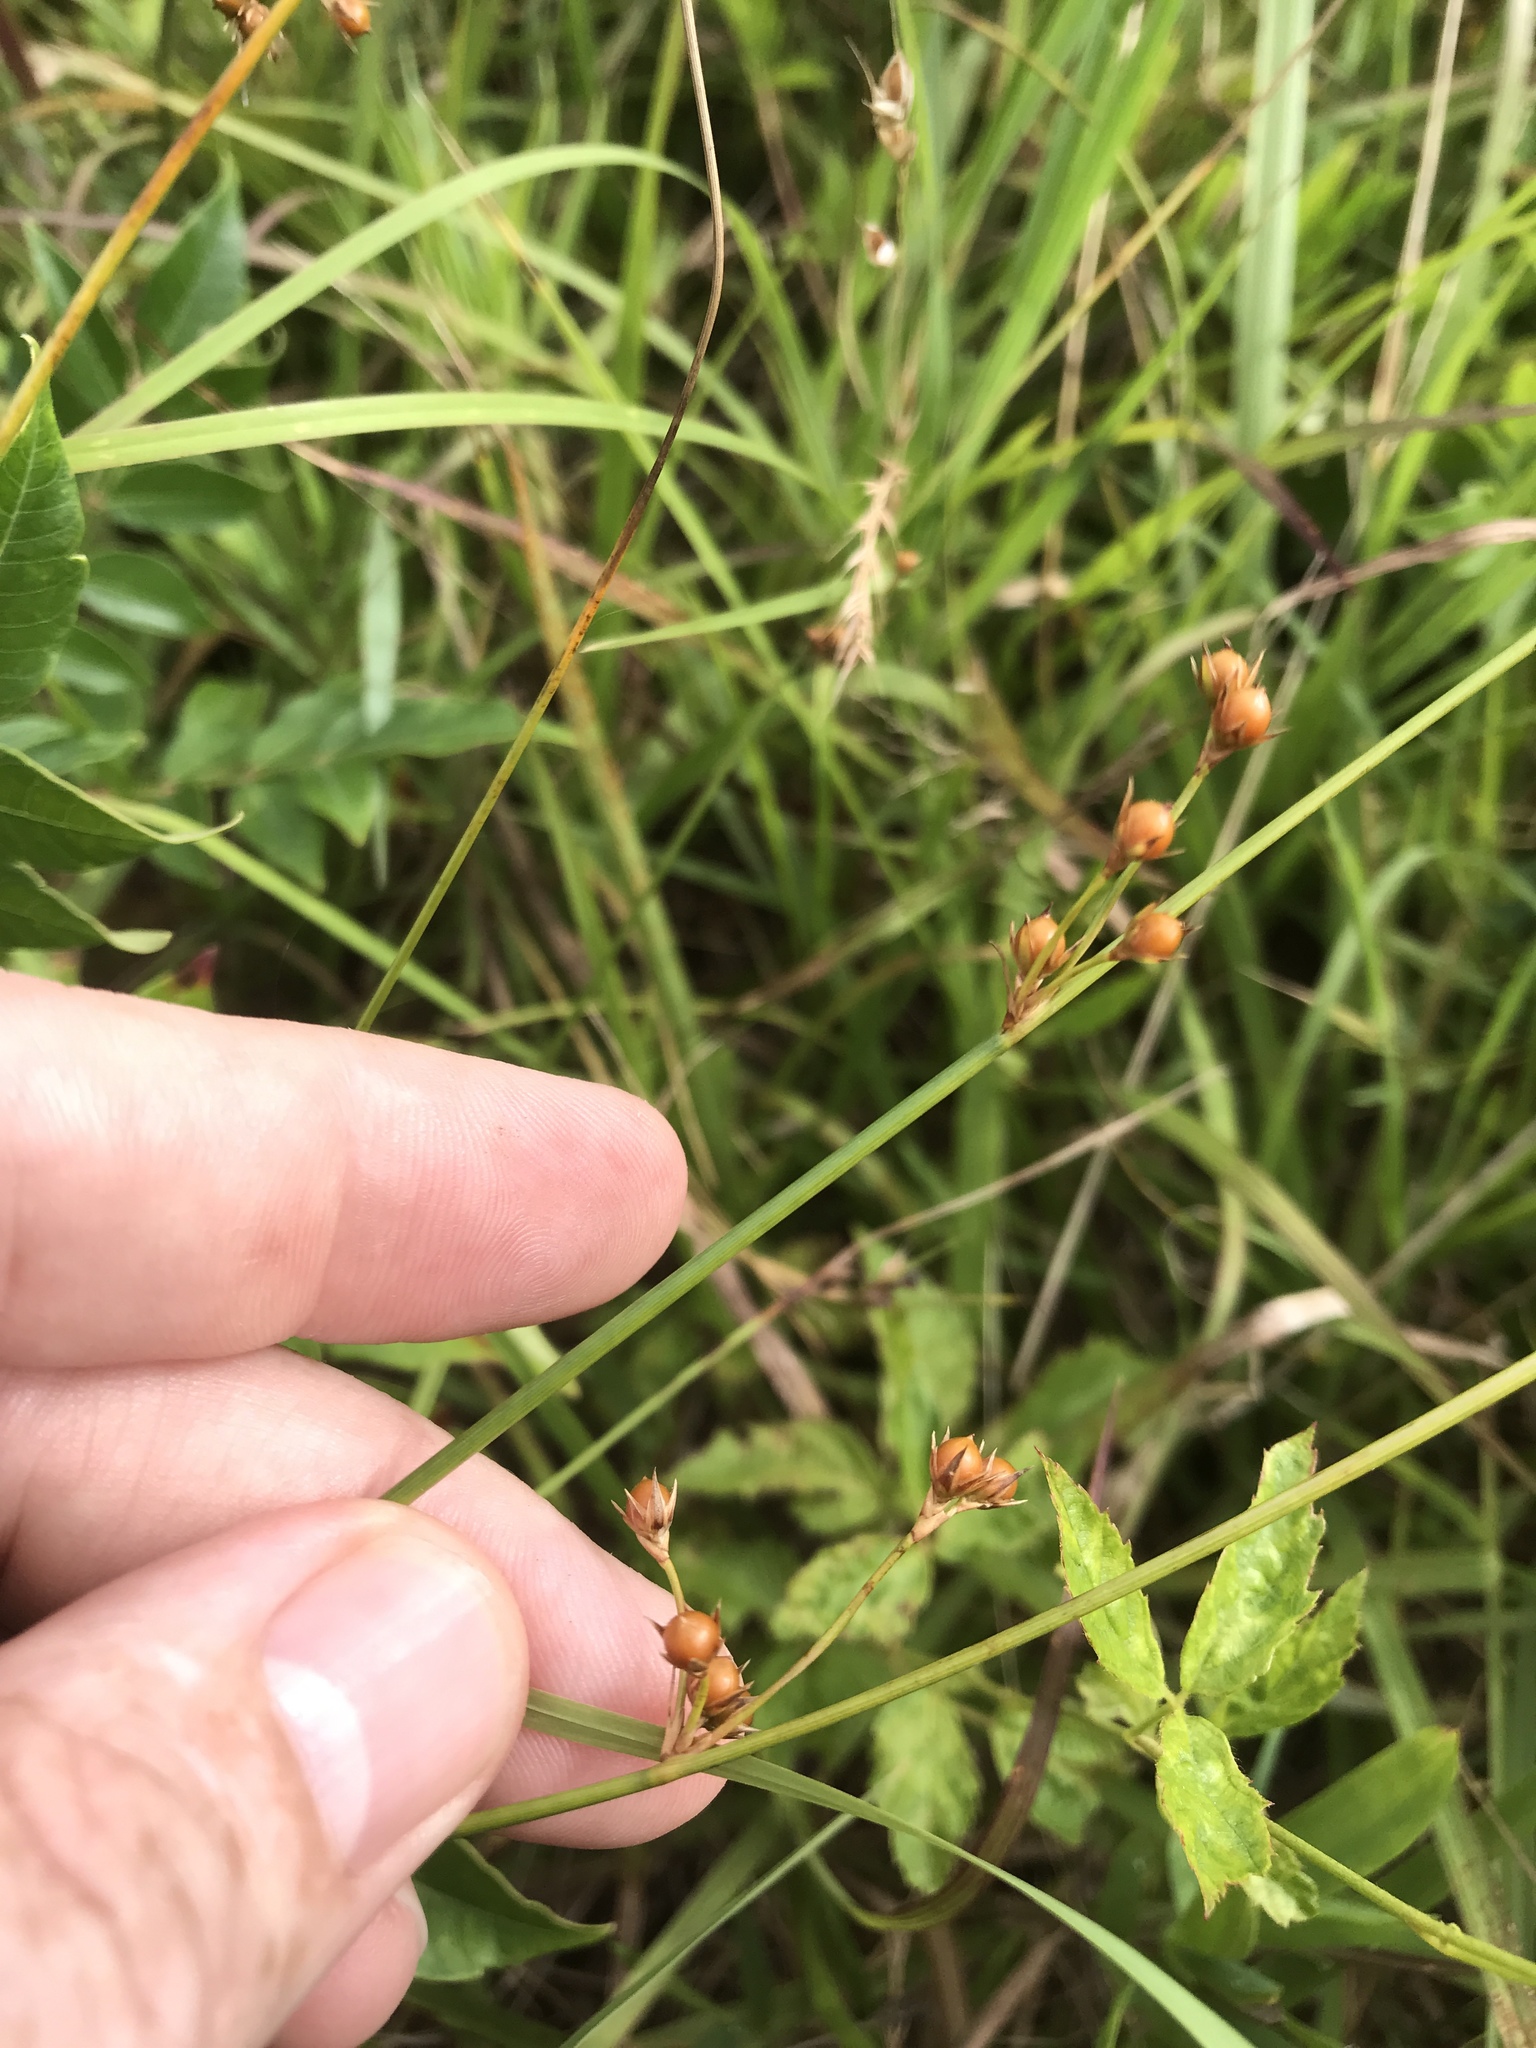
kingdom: Plantae
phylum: Tracheophyta
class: Liliopsida
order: Poales
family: Juncaceae
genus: Juncus
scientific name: Juncus coriaceus
